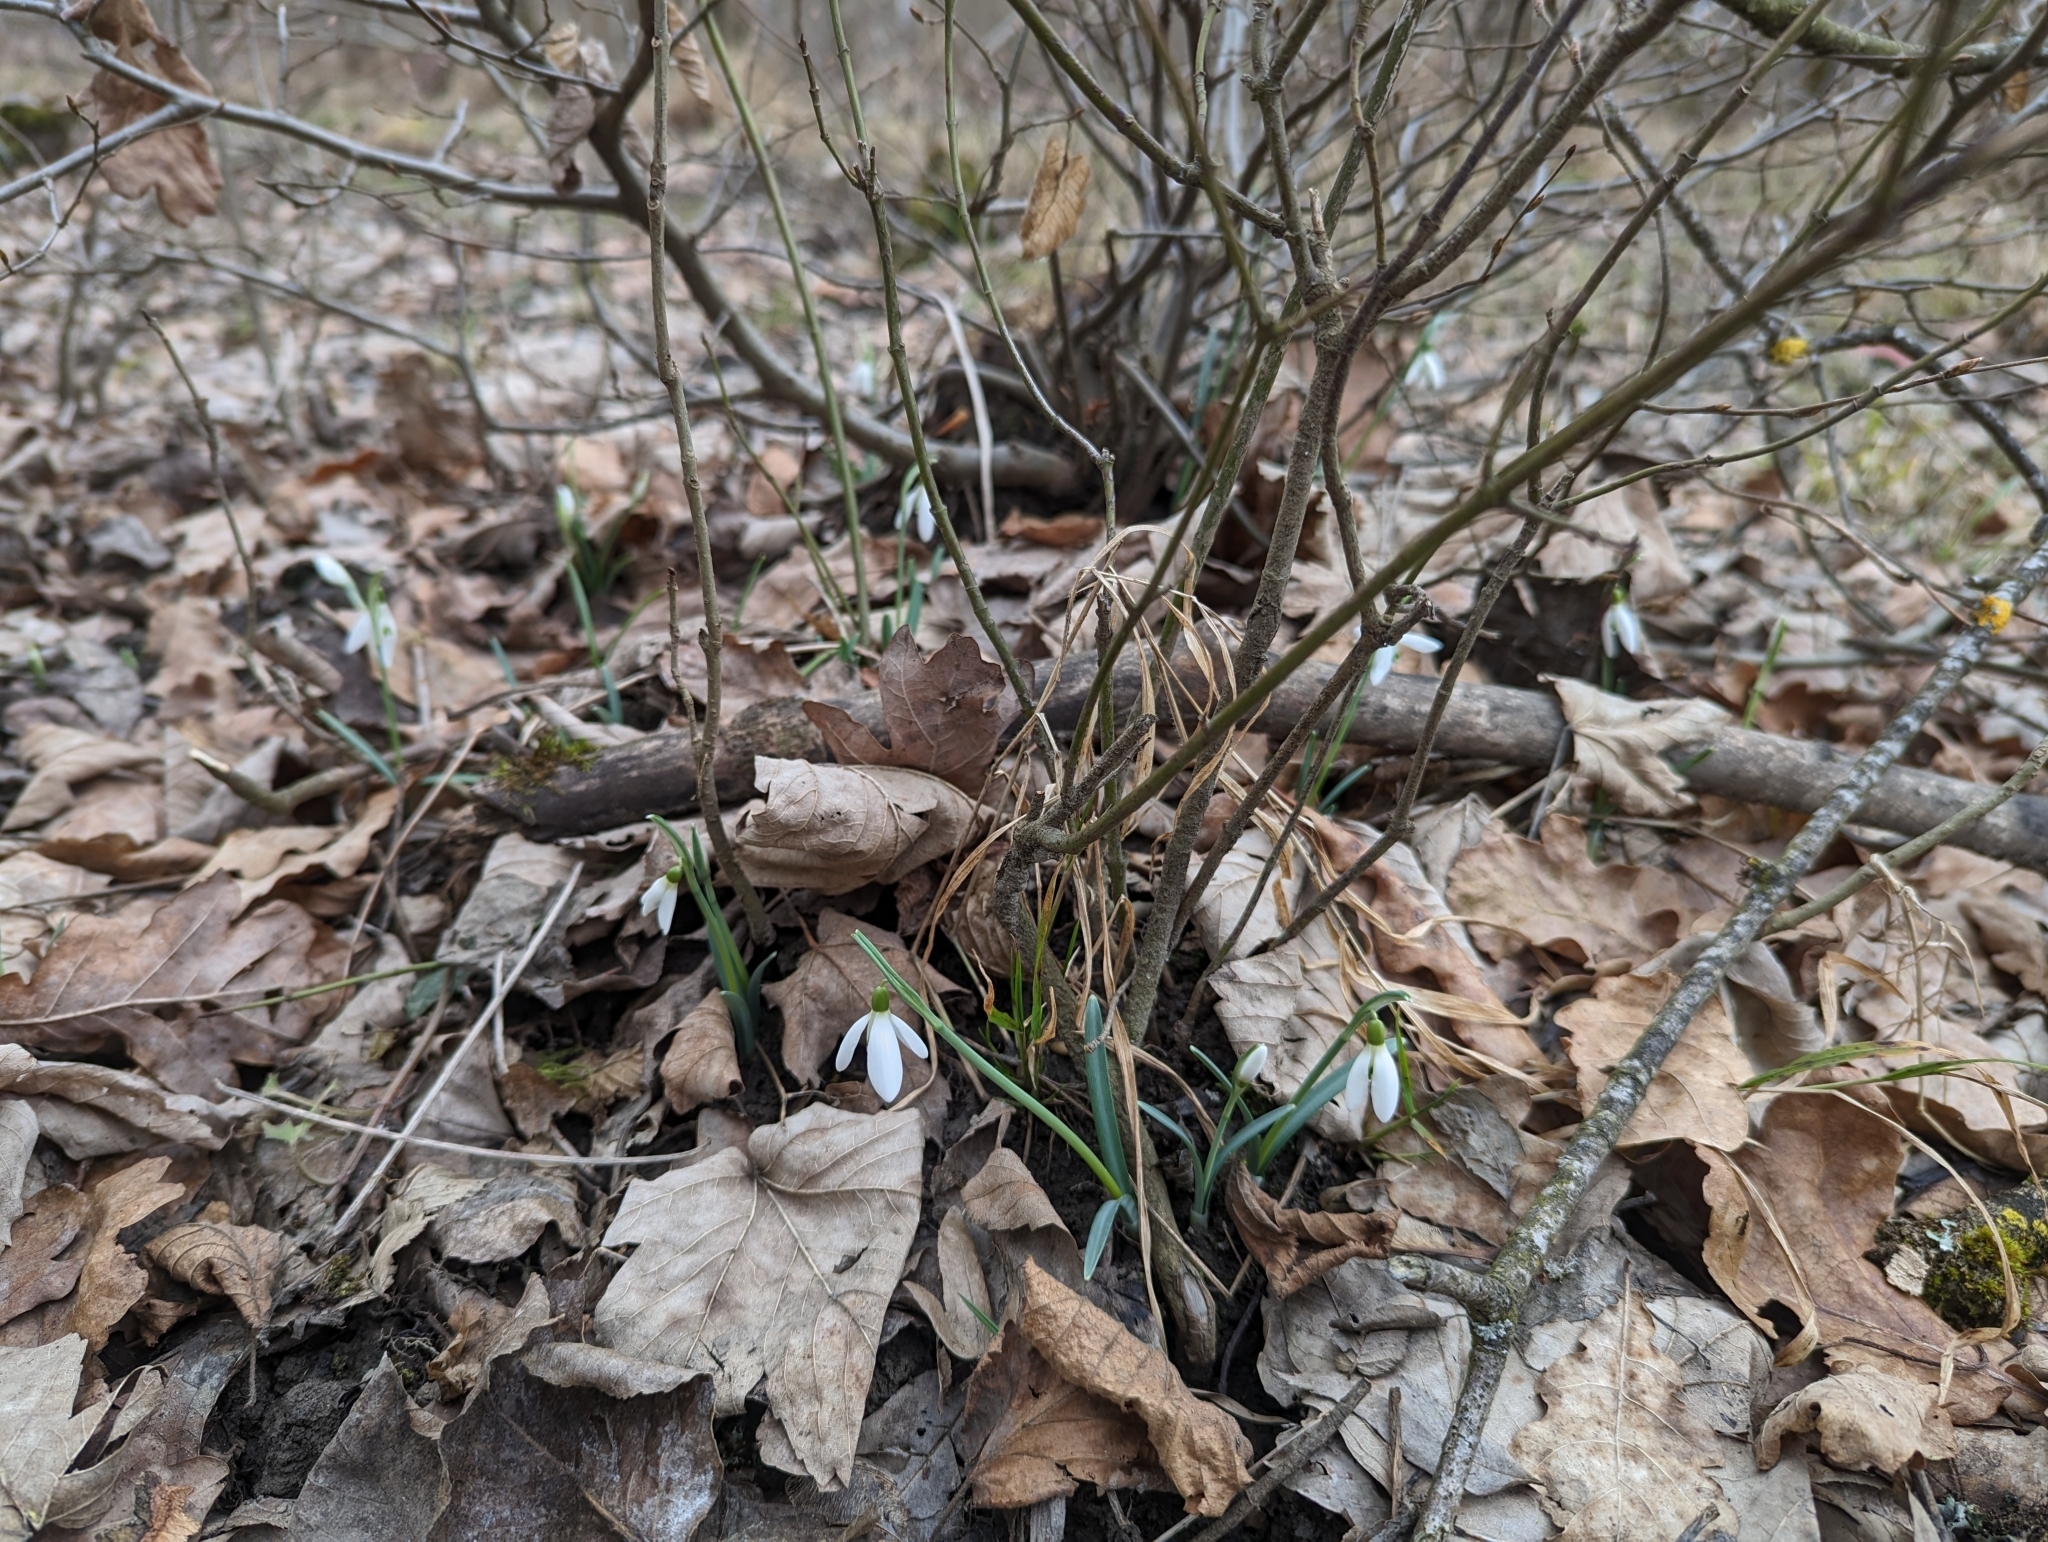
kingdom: Plantae
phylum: Tracheophyta
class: Liliopsida
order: Asparagales
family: Amaryllidaceae
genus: Galanthus
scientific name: Galanthus nivalis
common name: Snowdrop
